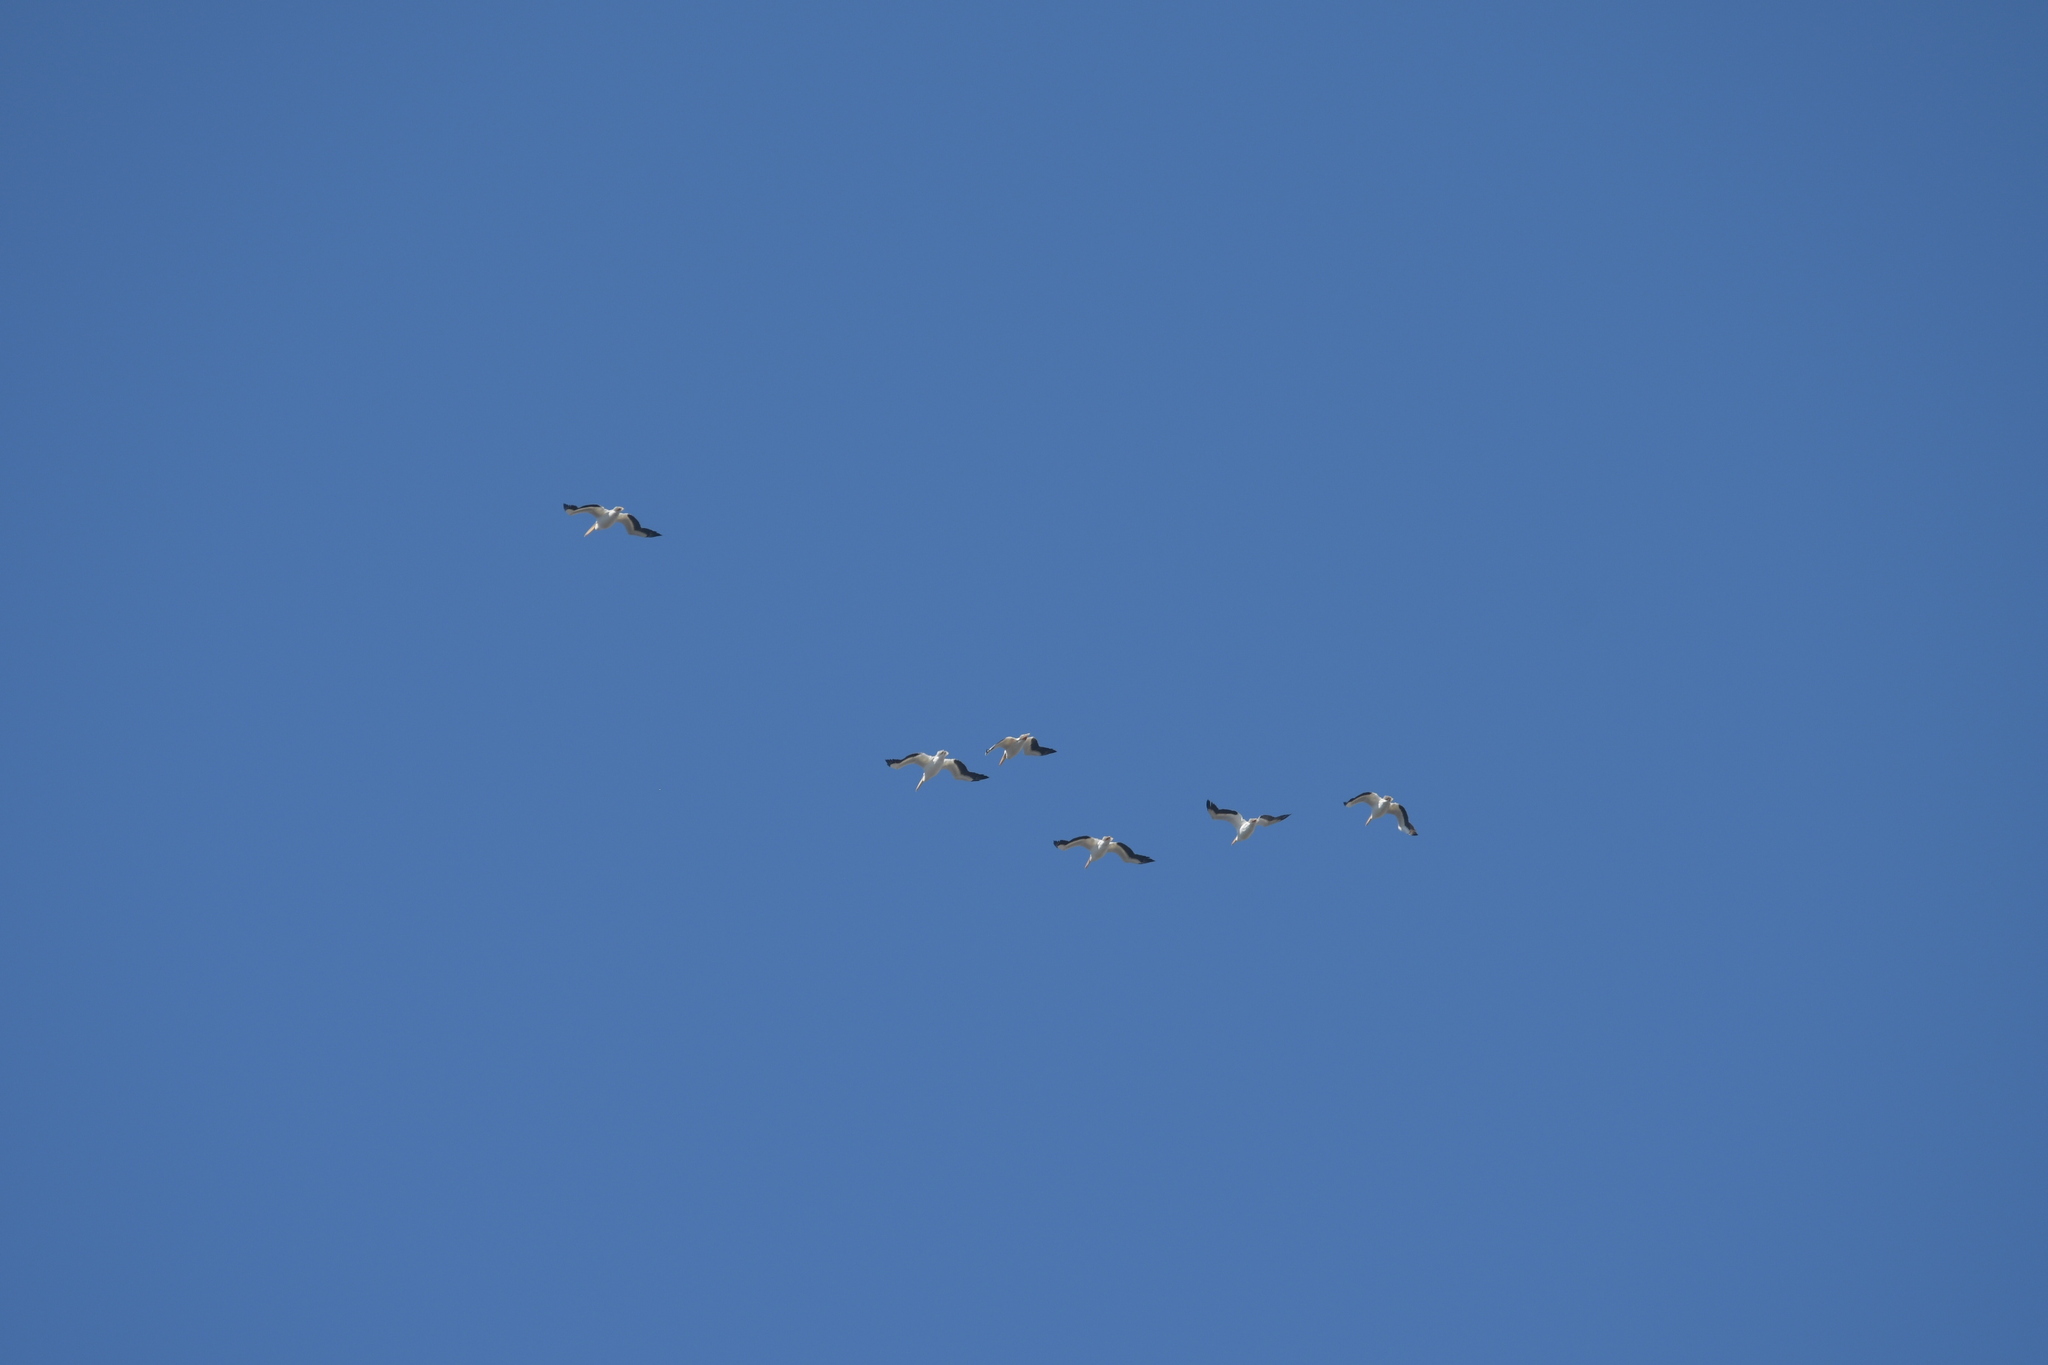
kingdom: Animalia
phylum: Chordata
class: Aves
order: Pelecaniformes
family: Pelecanidae
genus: Pelecanus
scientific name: Pelecanus erythrorhynchos
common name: American white pelican
